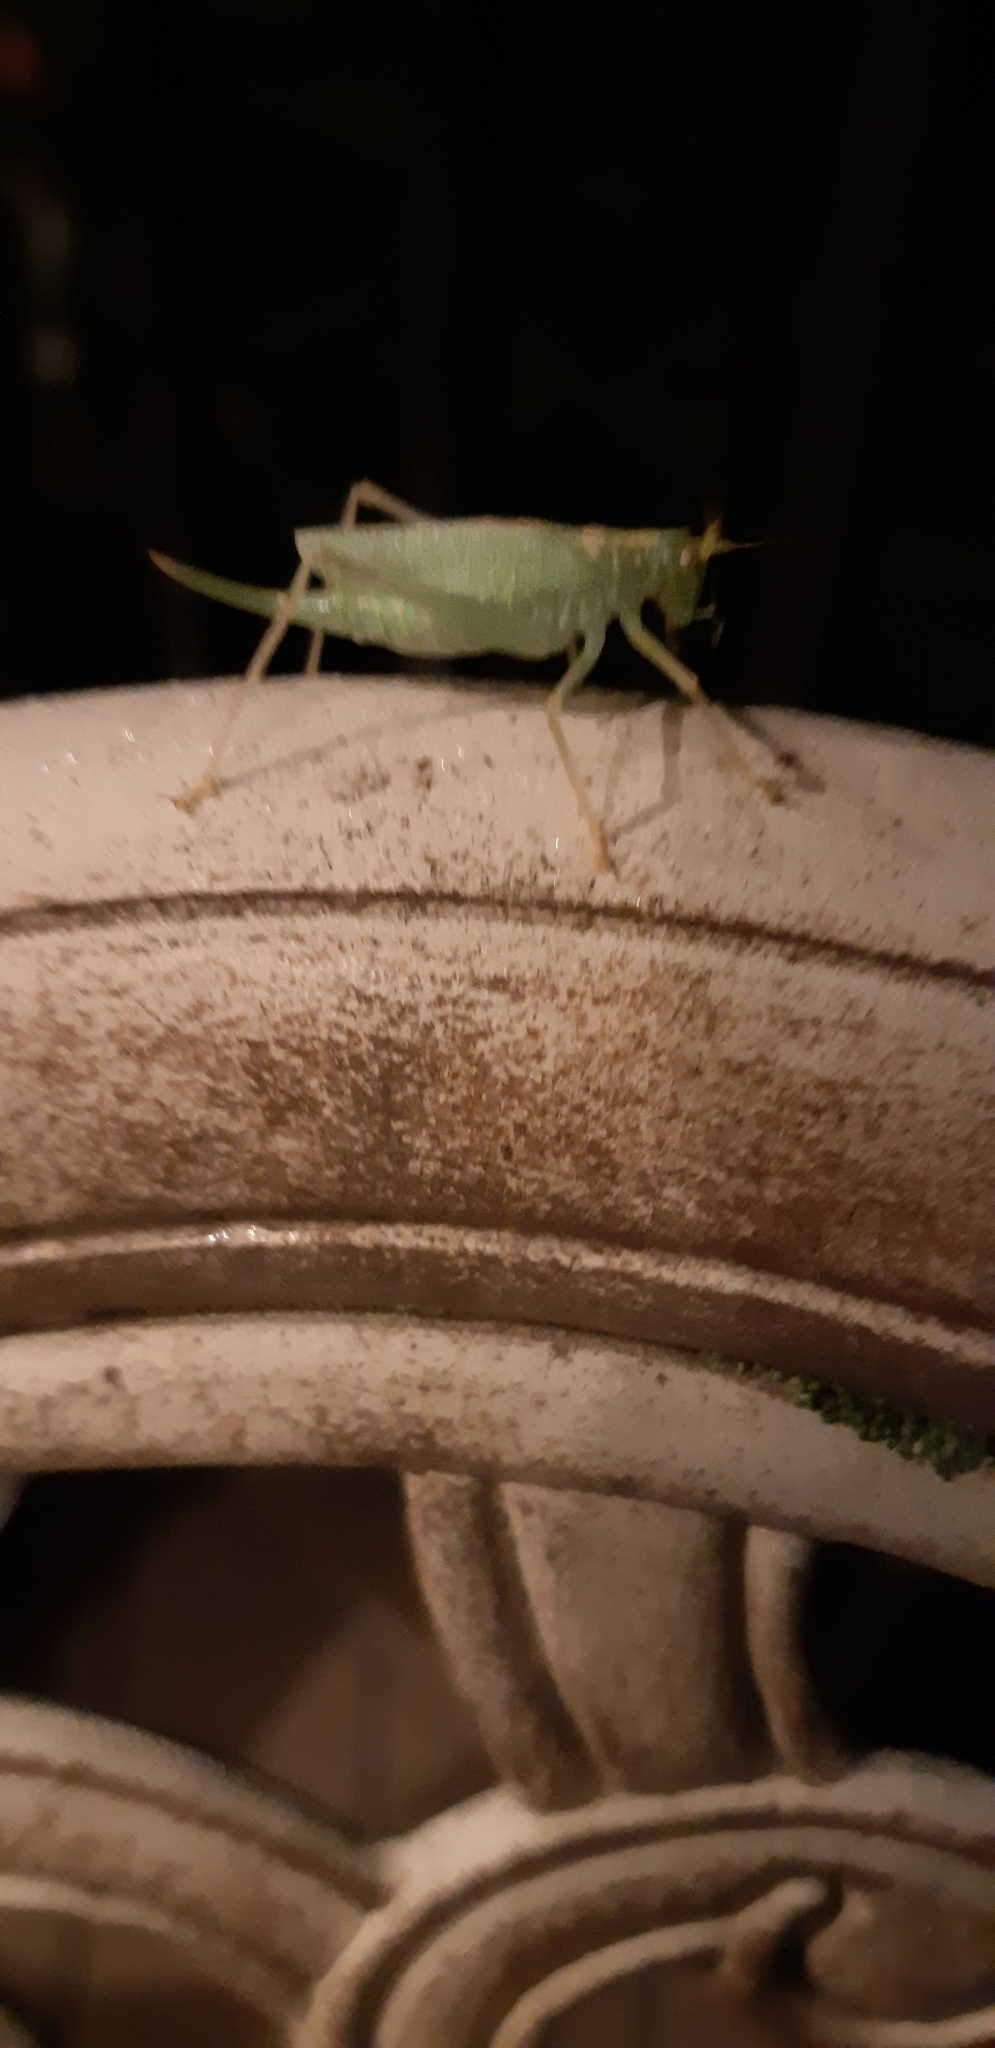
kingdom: Animalia
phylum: Arthropoda
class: Insecta
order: Orthoptera
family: Tettigoniidae
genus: Meconema
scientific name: Meconema thalassinum
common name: Oak bush-cricket
